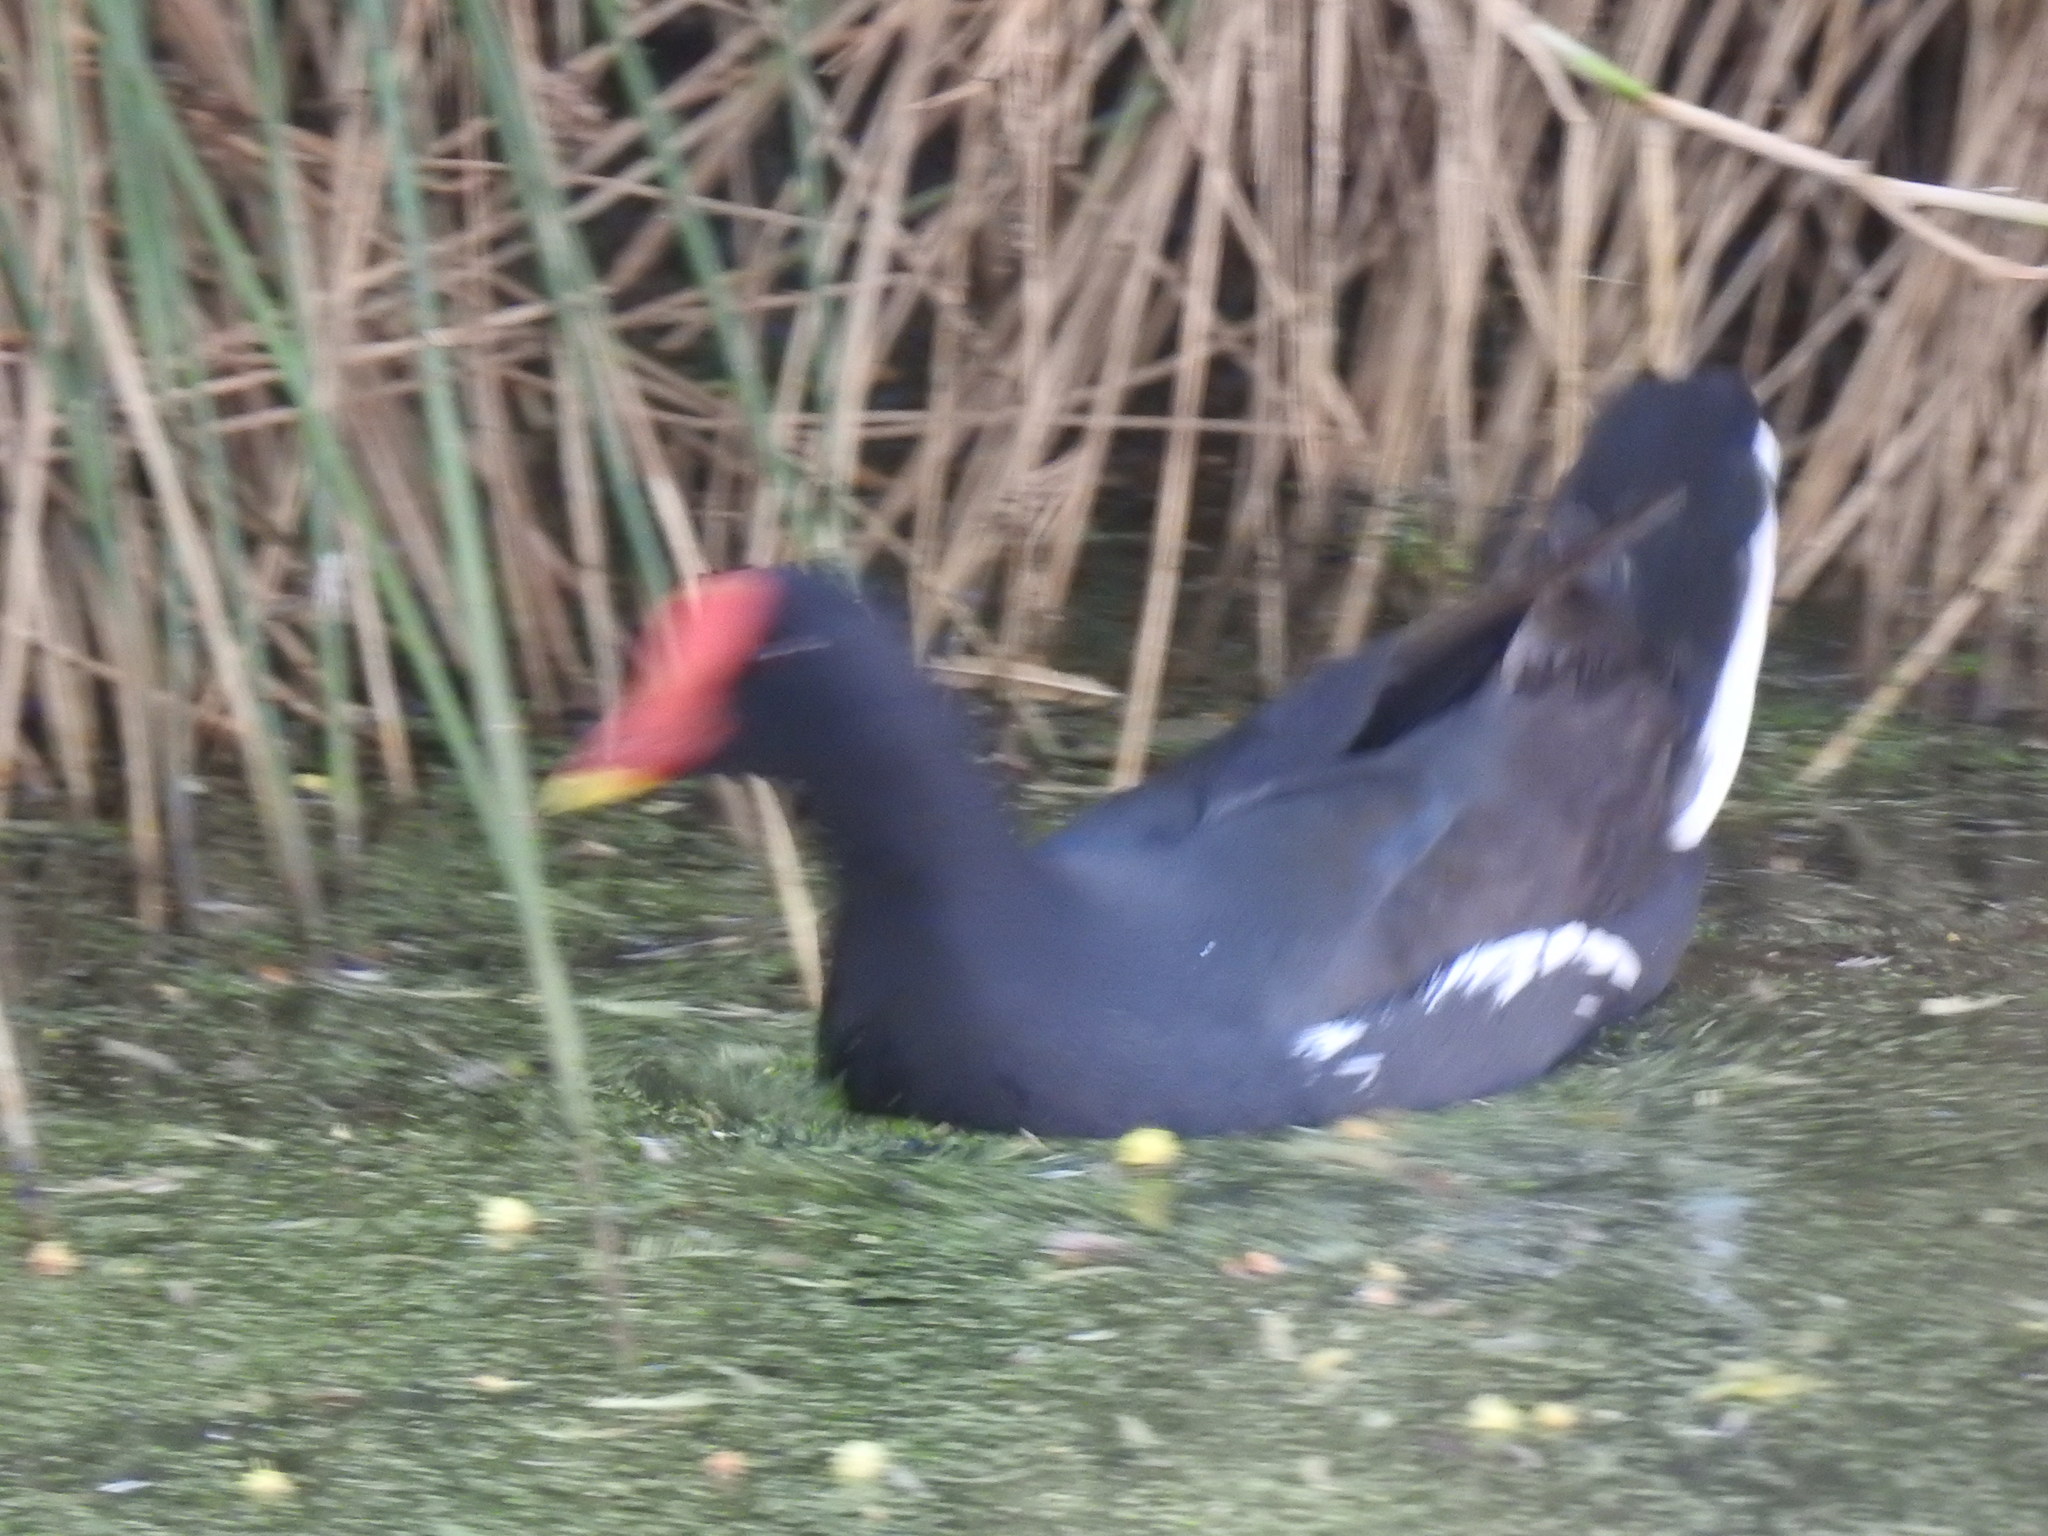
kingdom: Animalia
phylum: Chordata
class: Aves
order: Gruiformes
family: Rallidae
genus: Gallinula
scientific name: Gallinula chloropus
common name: Common moorhen
